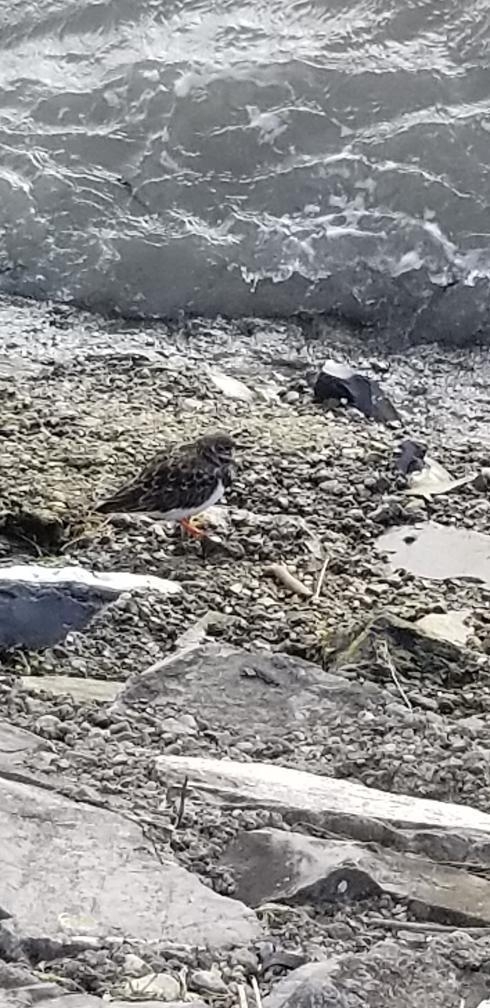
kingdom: Animalia
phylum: Chordata
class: Aves
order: Charadriiformes
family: Scolopacidae
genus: Arenaria
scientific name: Arenaria interpres
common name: Ruddy turnstone
